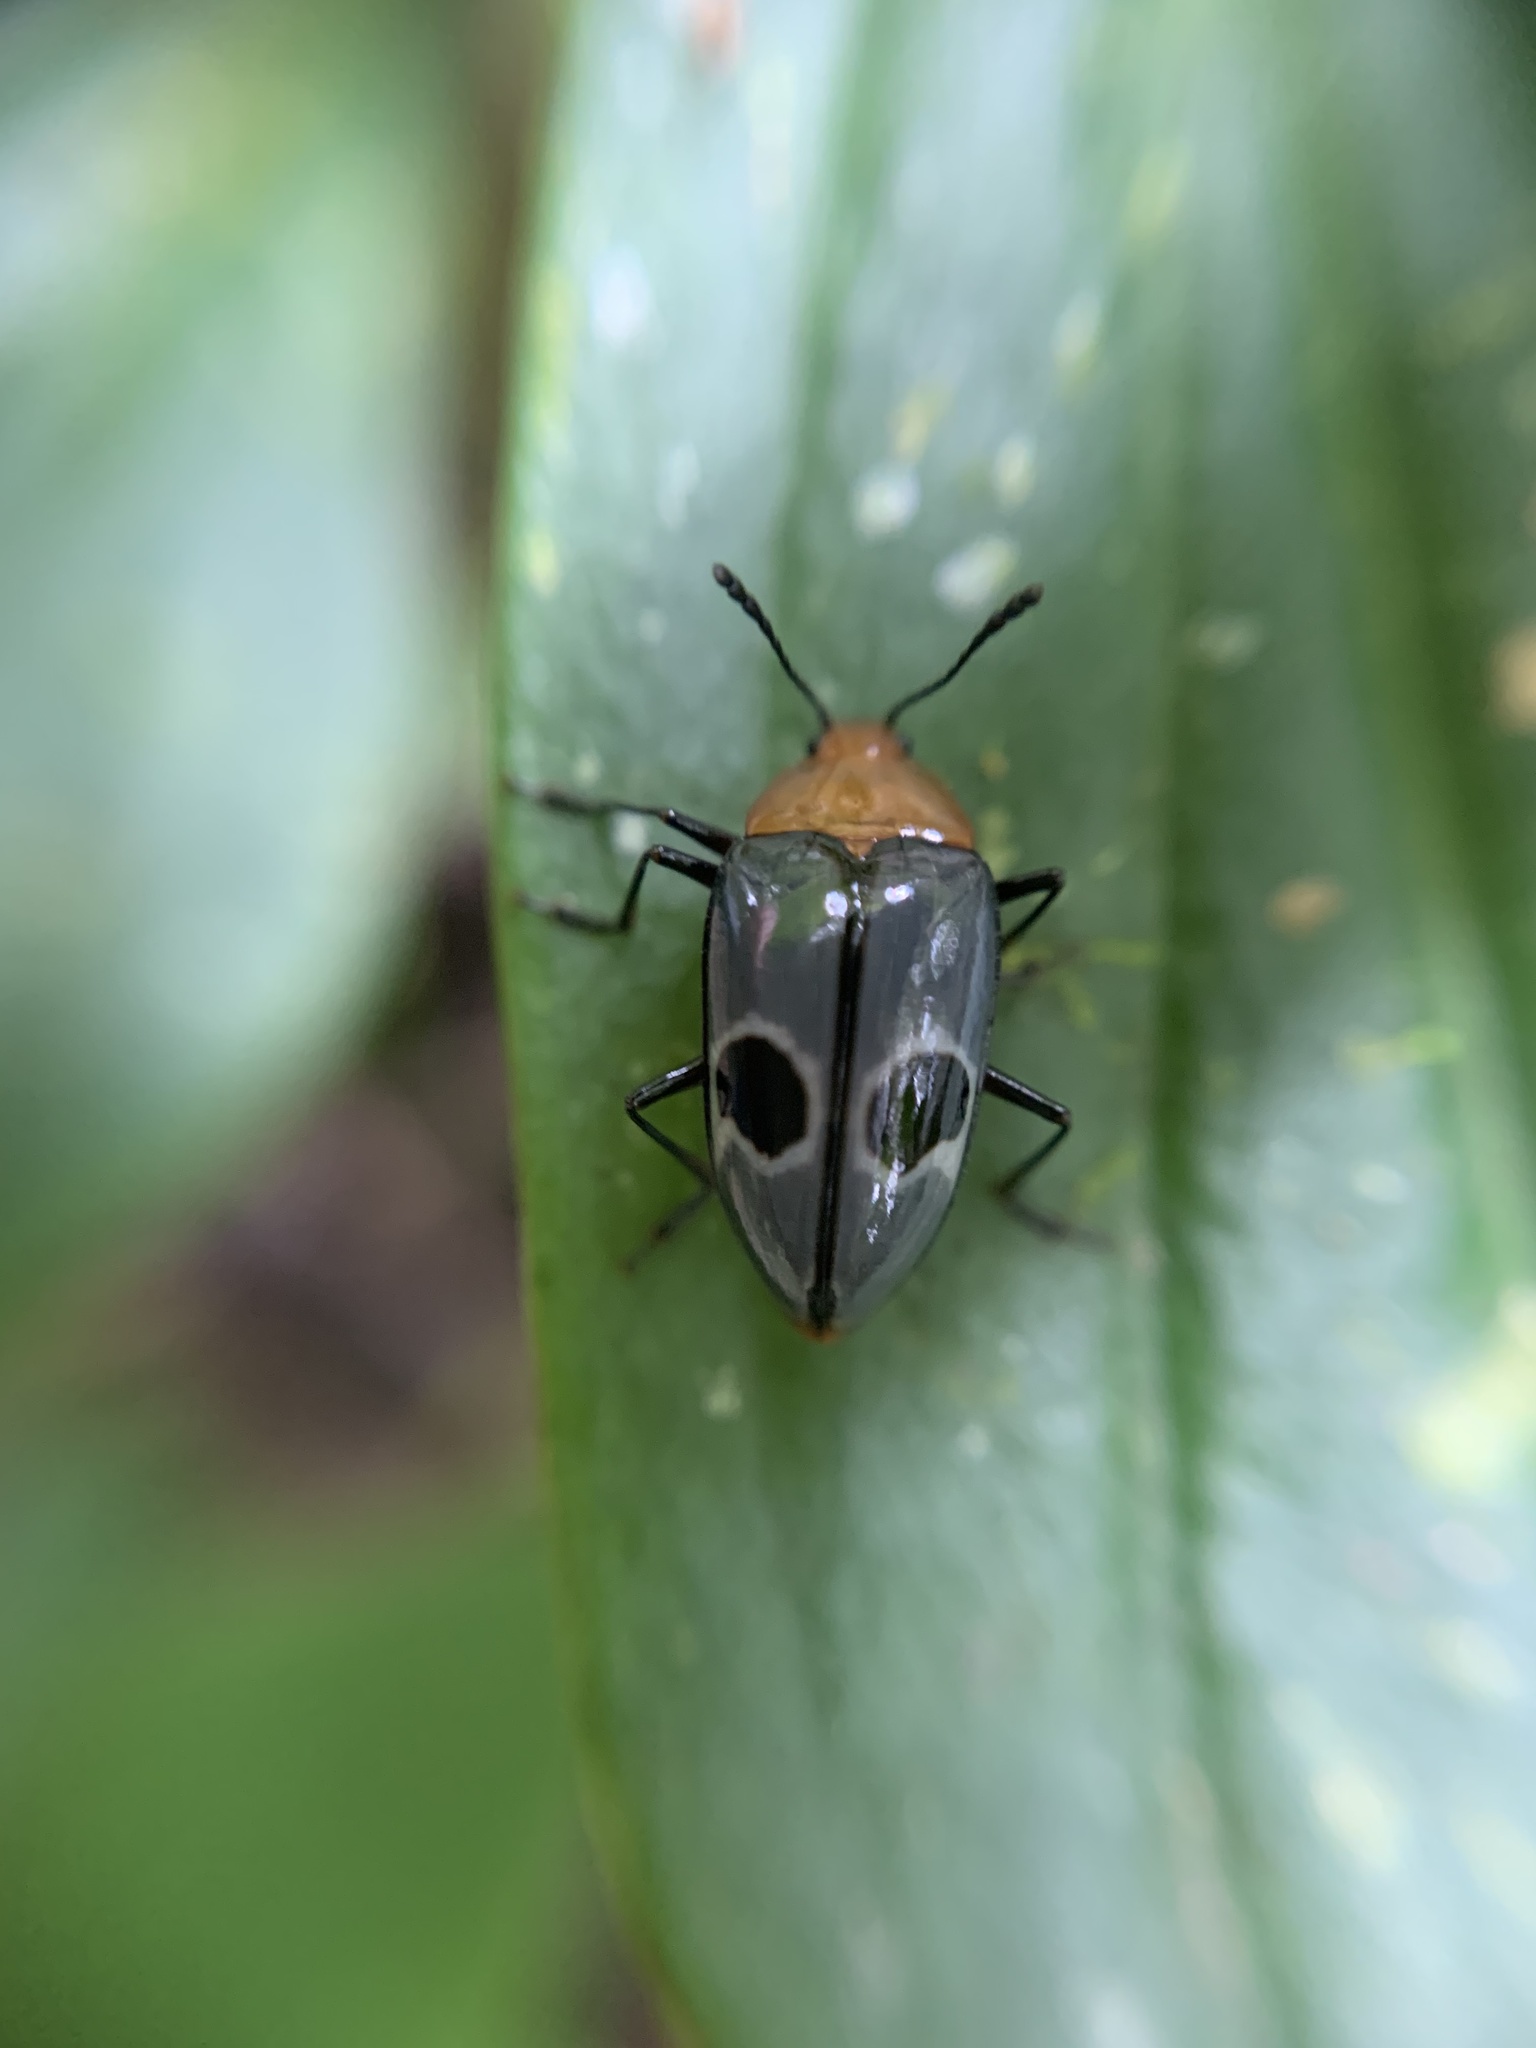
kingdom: Animalia
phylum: Arthropoda
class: Insecta
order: Coleoptera
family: Erotylidae
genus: Iphiclus
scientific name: Iphiclus
